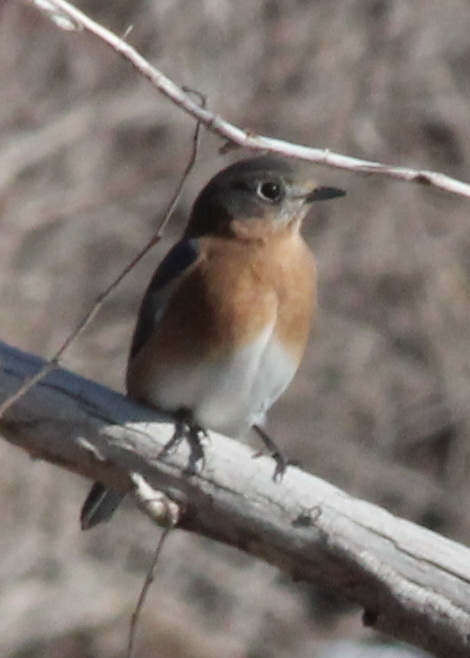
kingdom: Animalia
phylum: Chordata
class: Aves
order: Passeriformes
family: Turdidae
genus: Sialia
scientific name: Sialia sialis
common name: Eastern bluebird
